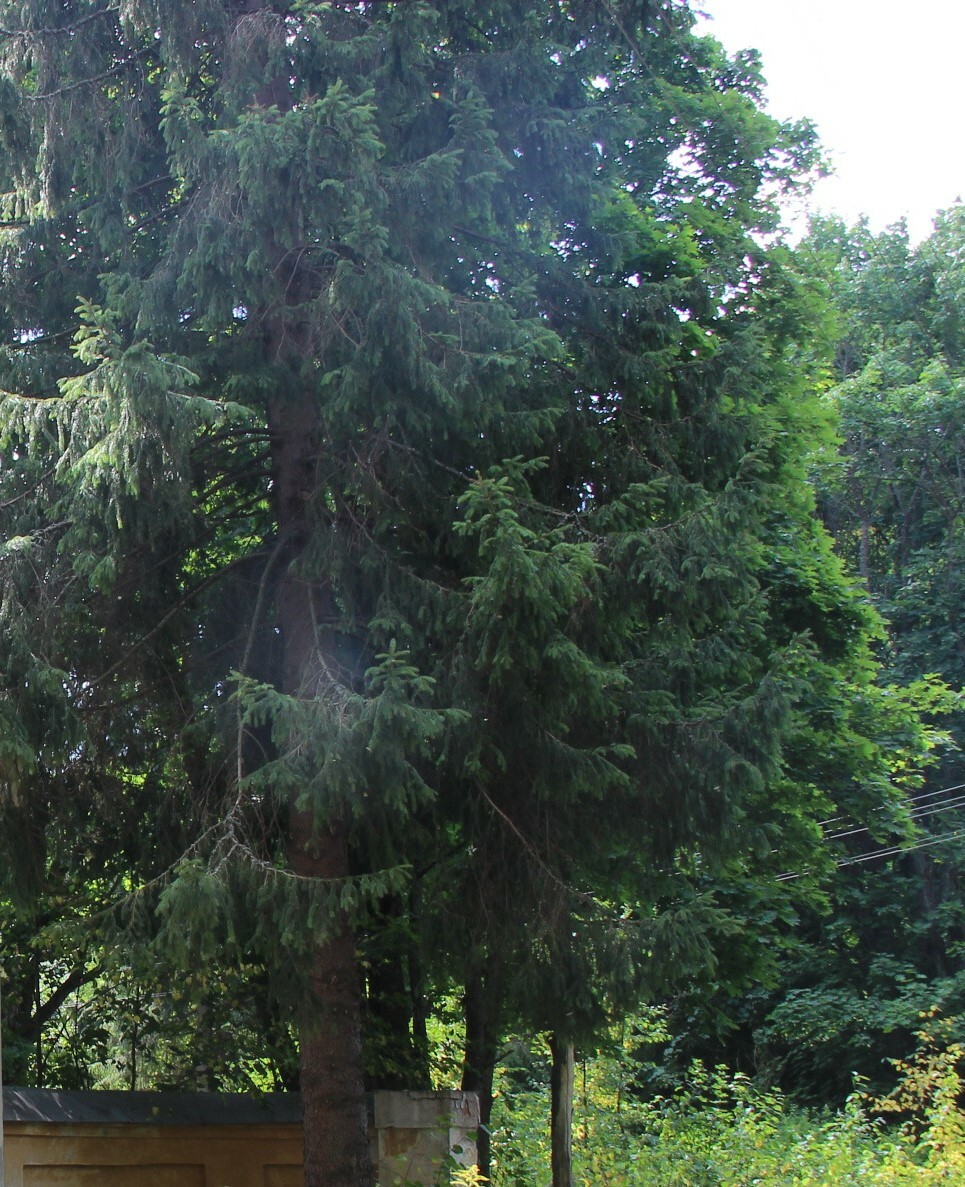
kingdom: Plantae
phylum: Tracheophyta
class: Pinopsida
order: Pinales
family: Pinaceae
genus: Picea
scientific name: Picea abies
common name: Norway spruce
